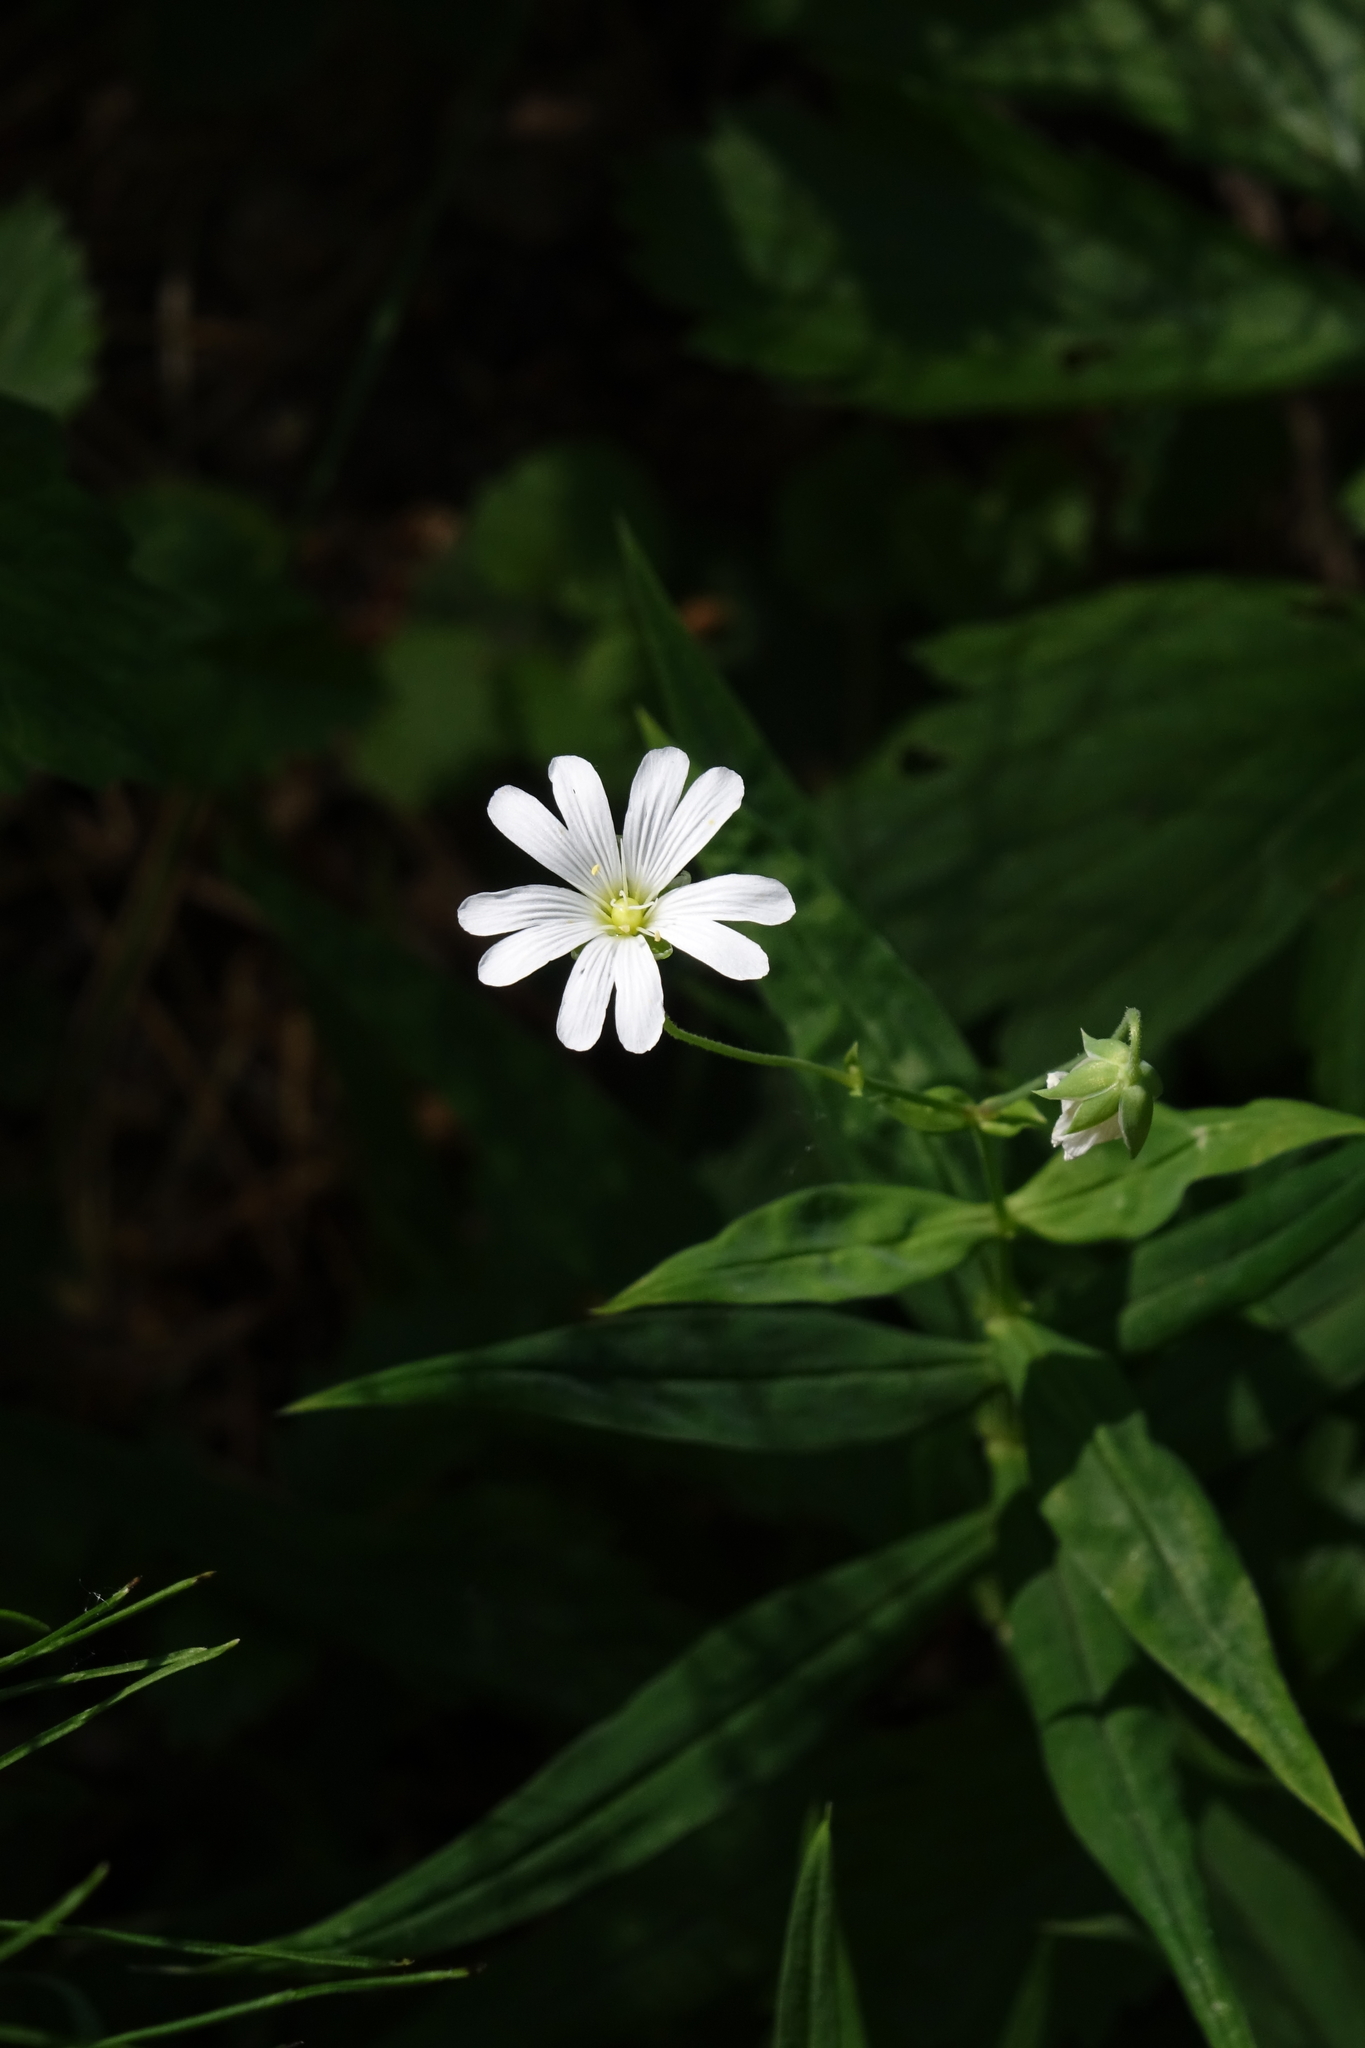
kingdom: Plantae
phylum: Tracheophyta
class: Magnoliopsida
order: Caryophyllales
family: Caryophyllaceae
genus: Rabelera
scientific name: Rabelera holostea
